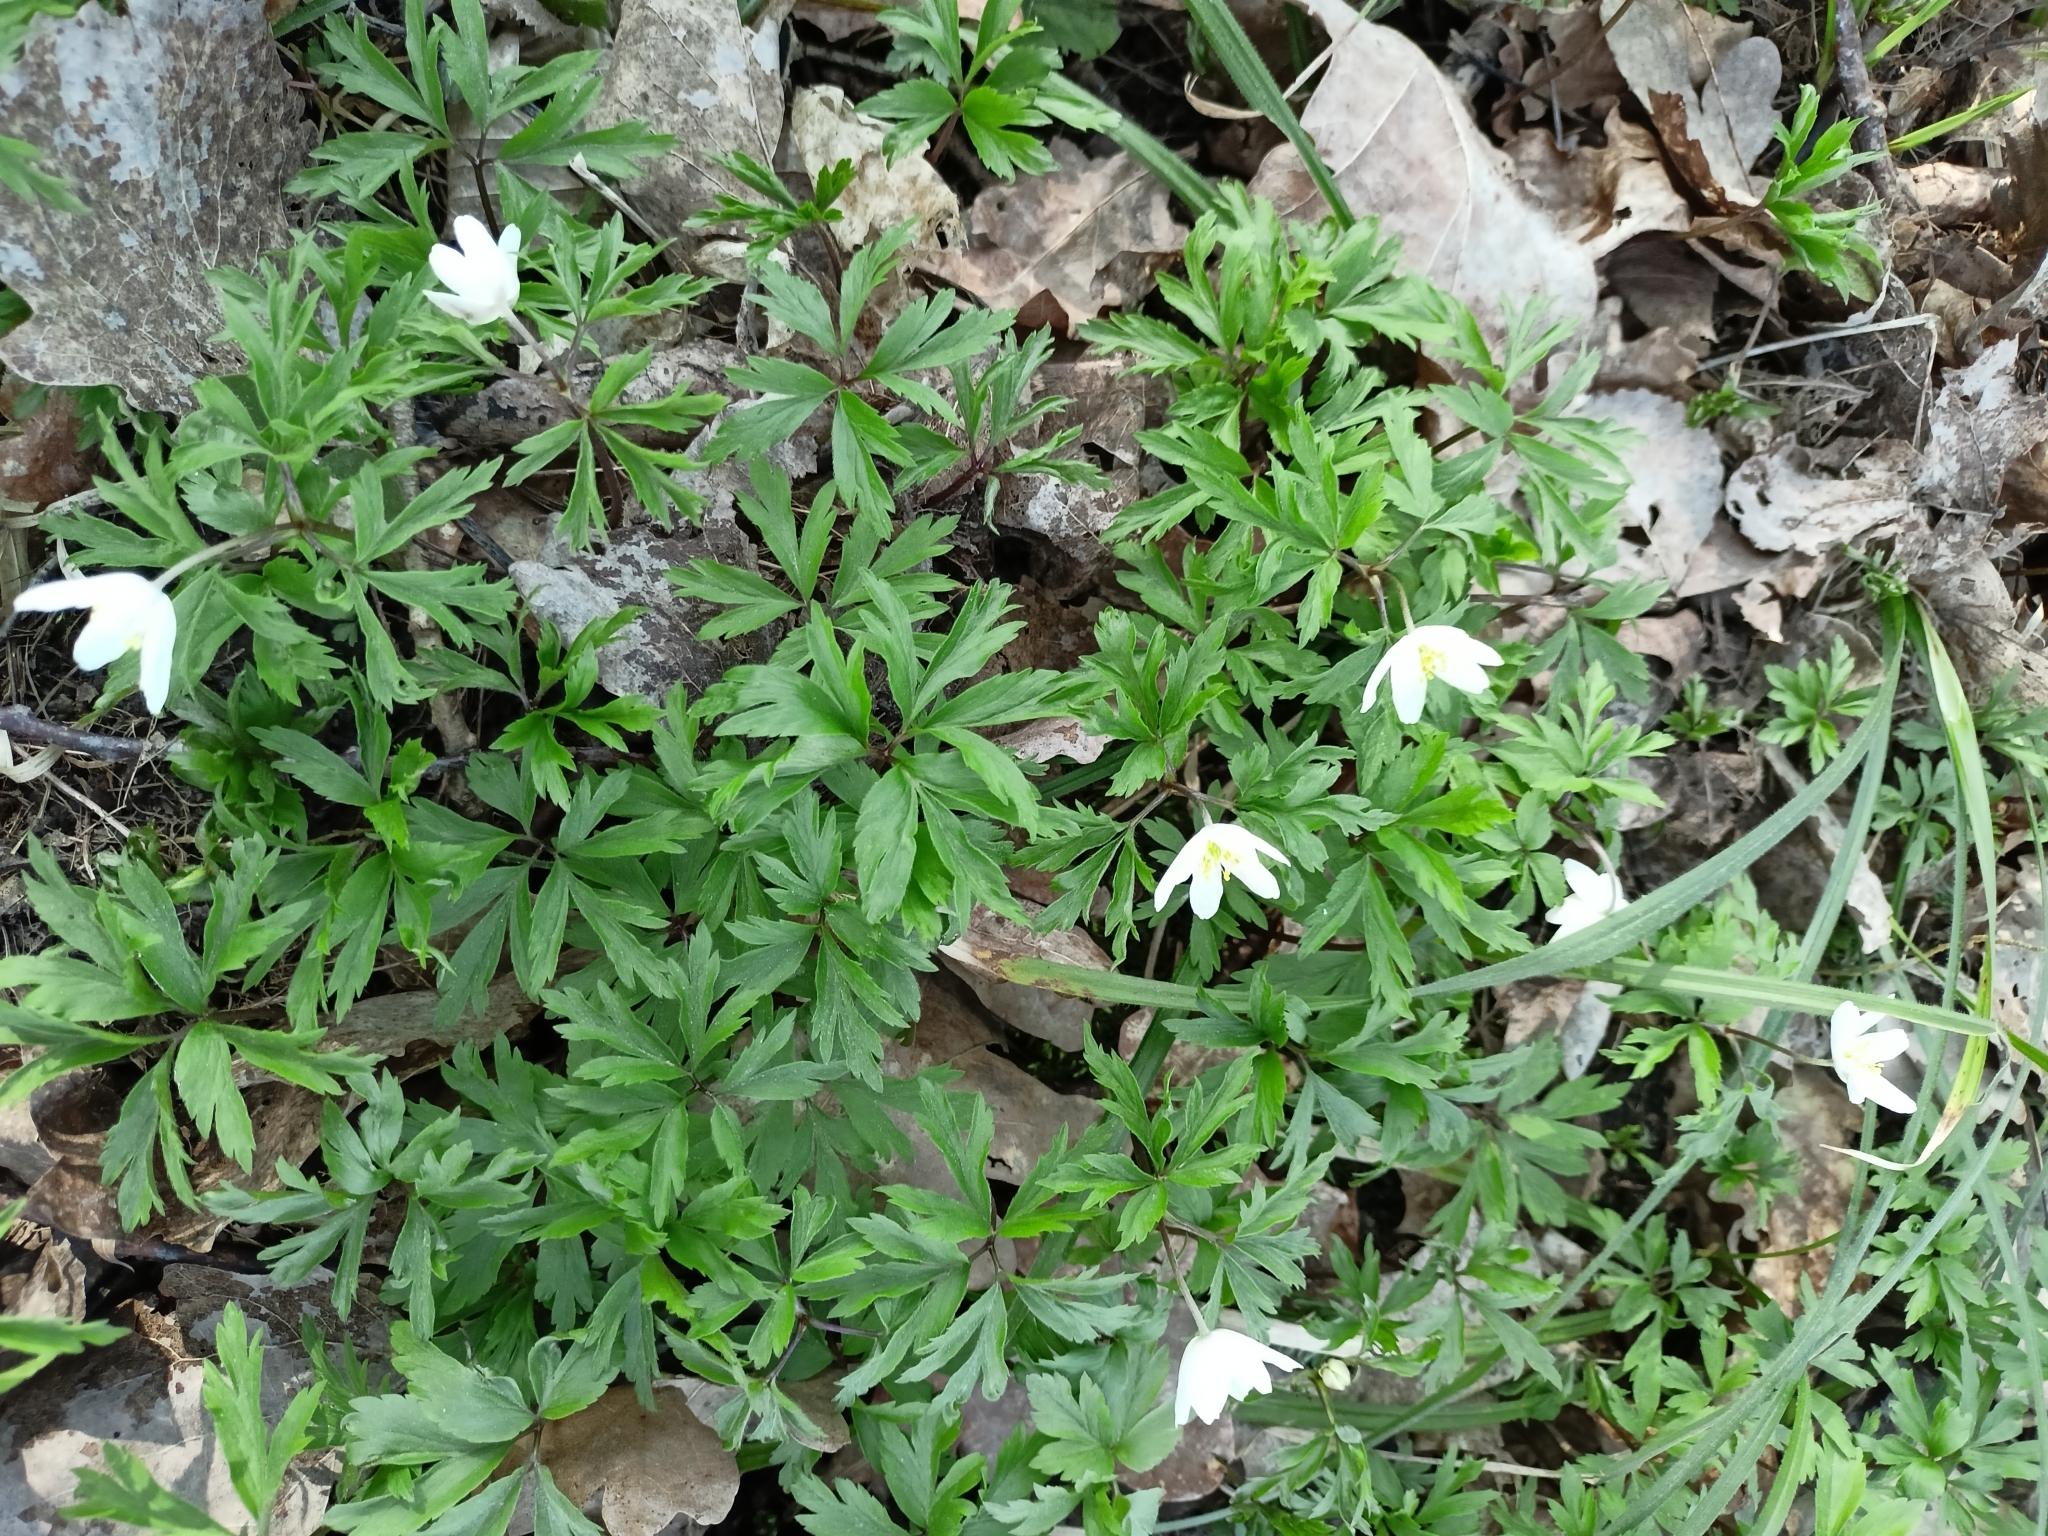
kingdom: Plantae
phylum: Tracheophyta
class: Magnoliopsida
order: Ranunculales
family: Ranunculaceae
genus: Anemone
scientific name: Anemone nemorosa
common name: Wood anemone
